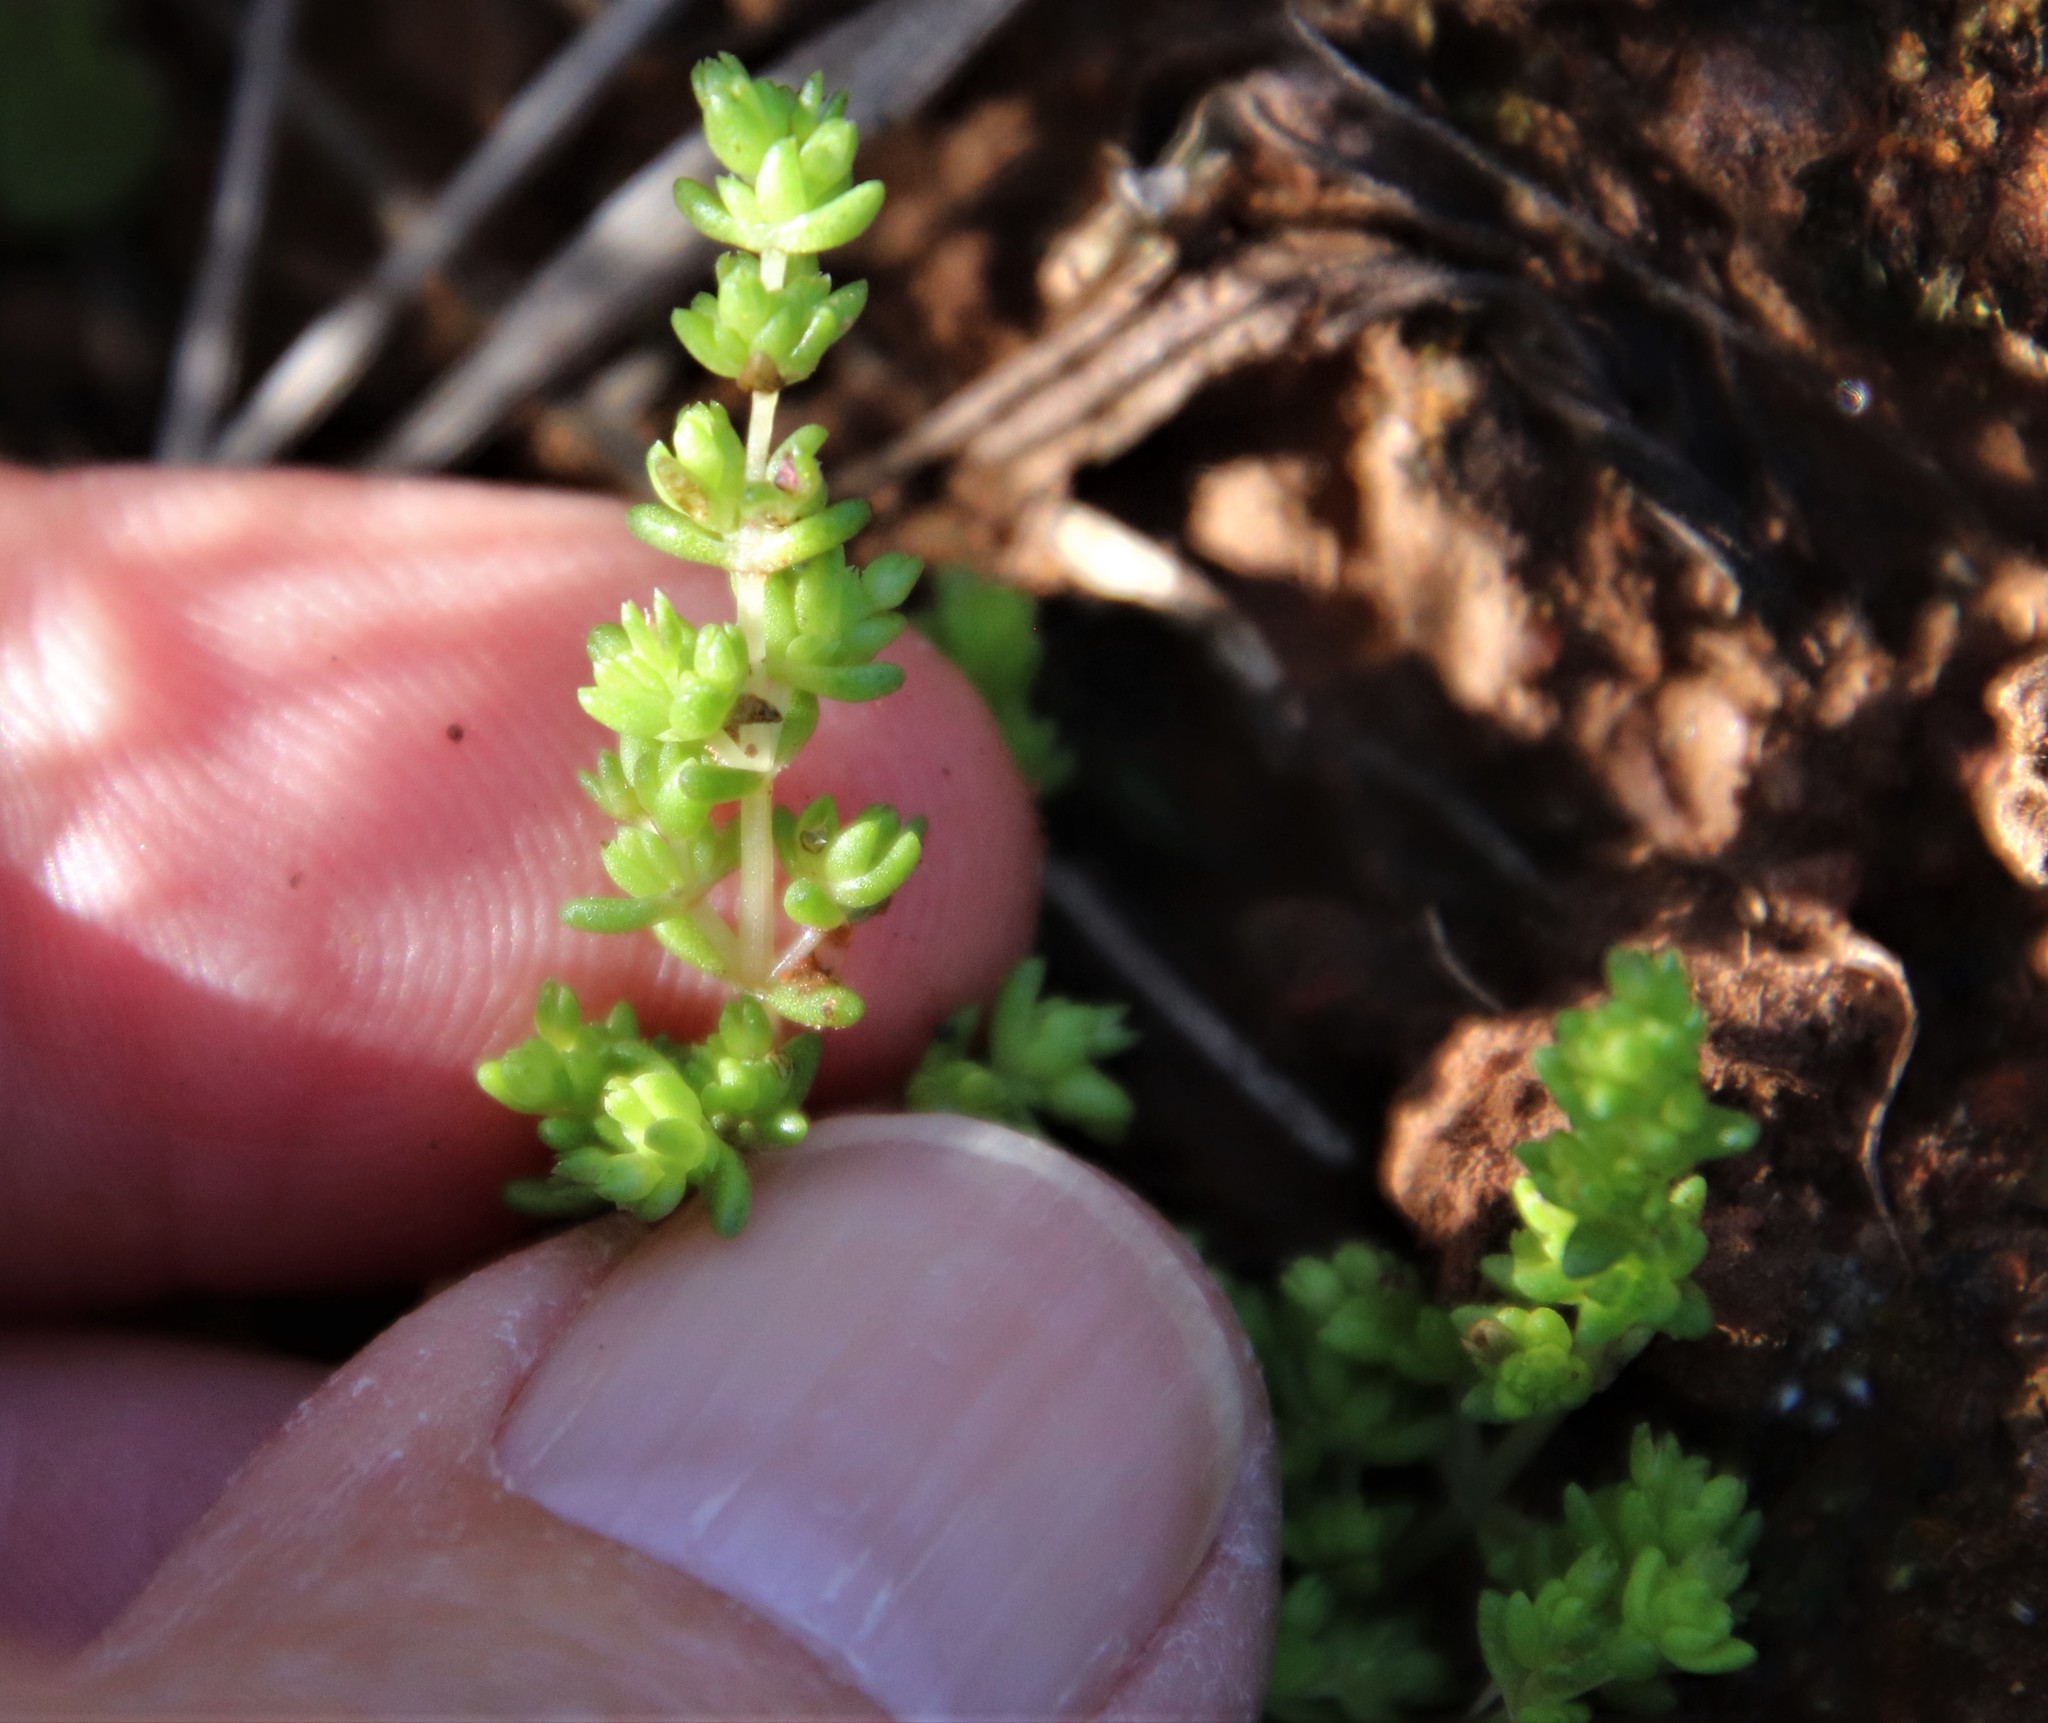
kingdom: Plantae
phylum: Tracheophyta
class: Magnoliopsida
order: Saxifragales
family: Crassulaceae
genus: Crassula
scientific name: Crassula connata
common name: Erect pygmyweed
